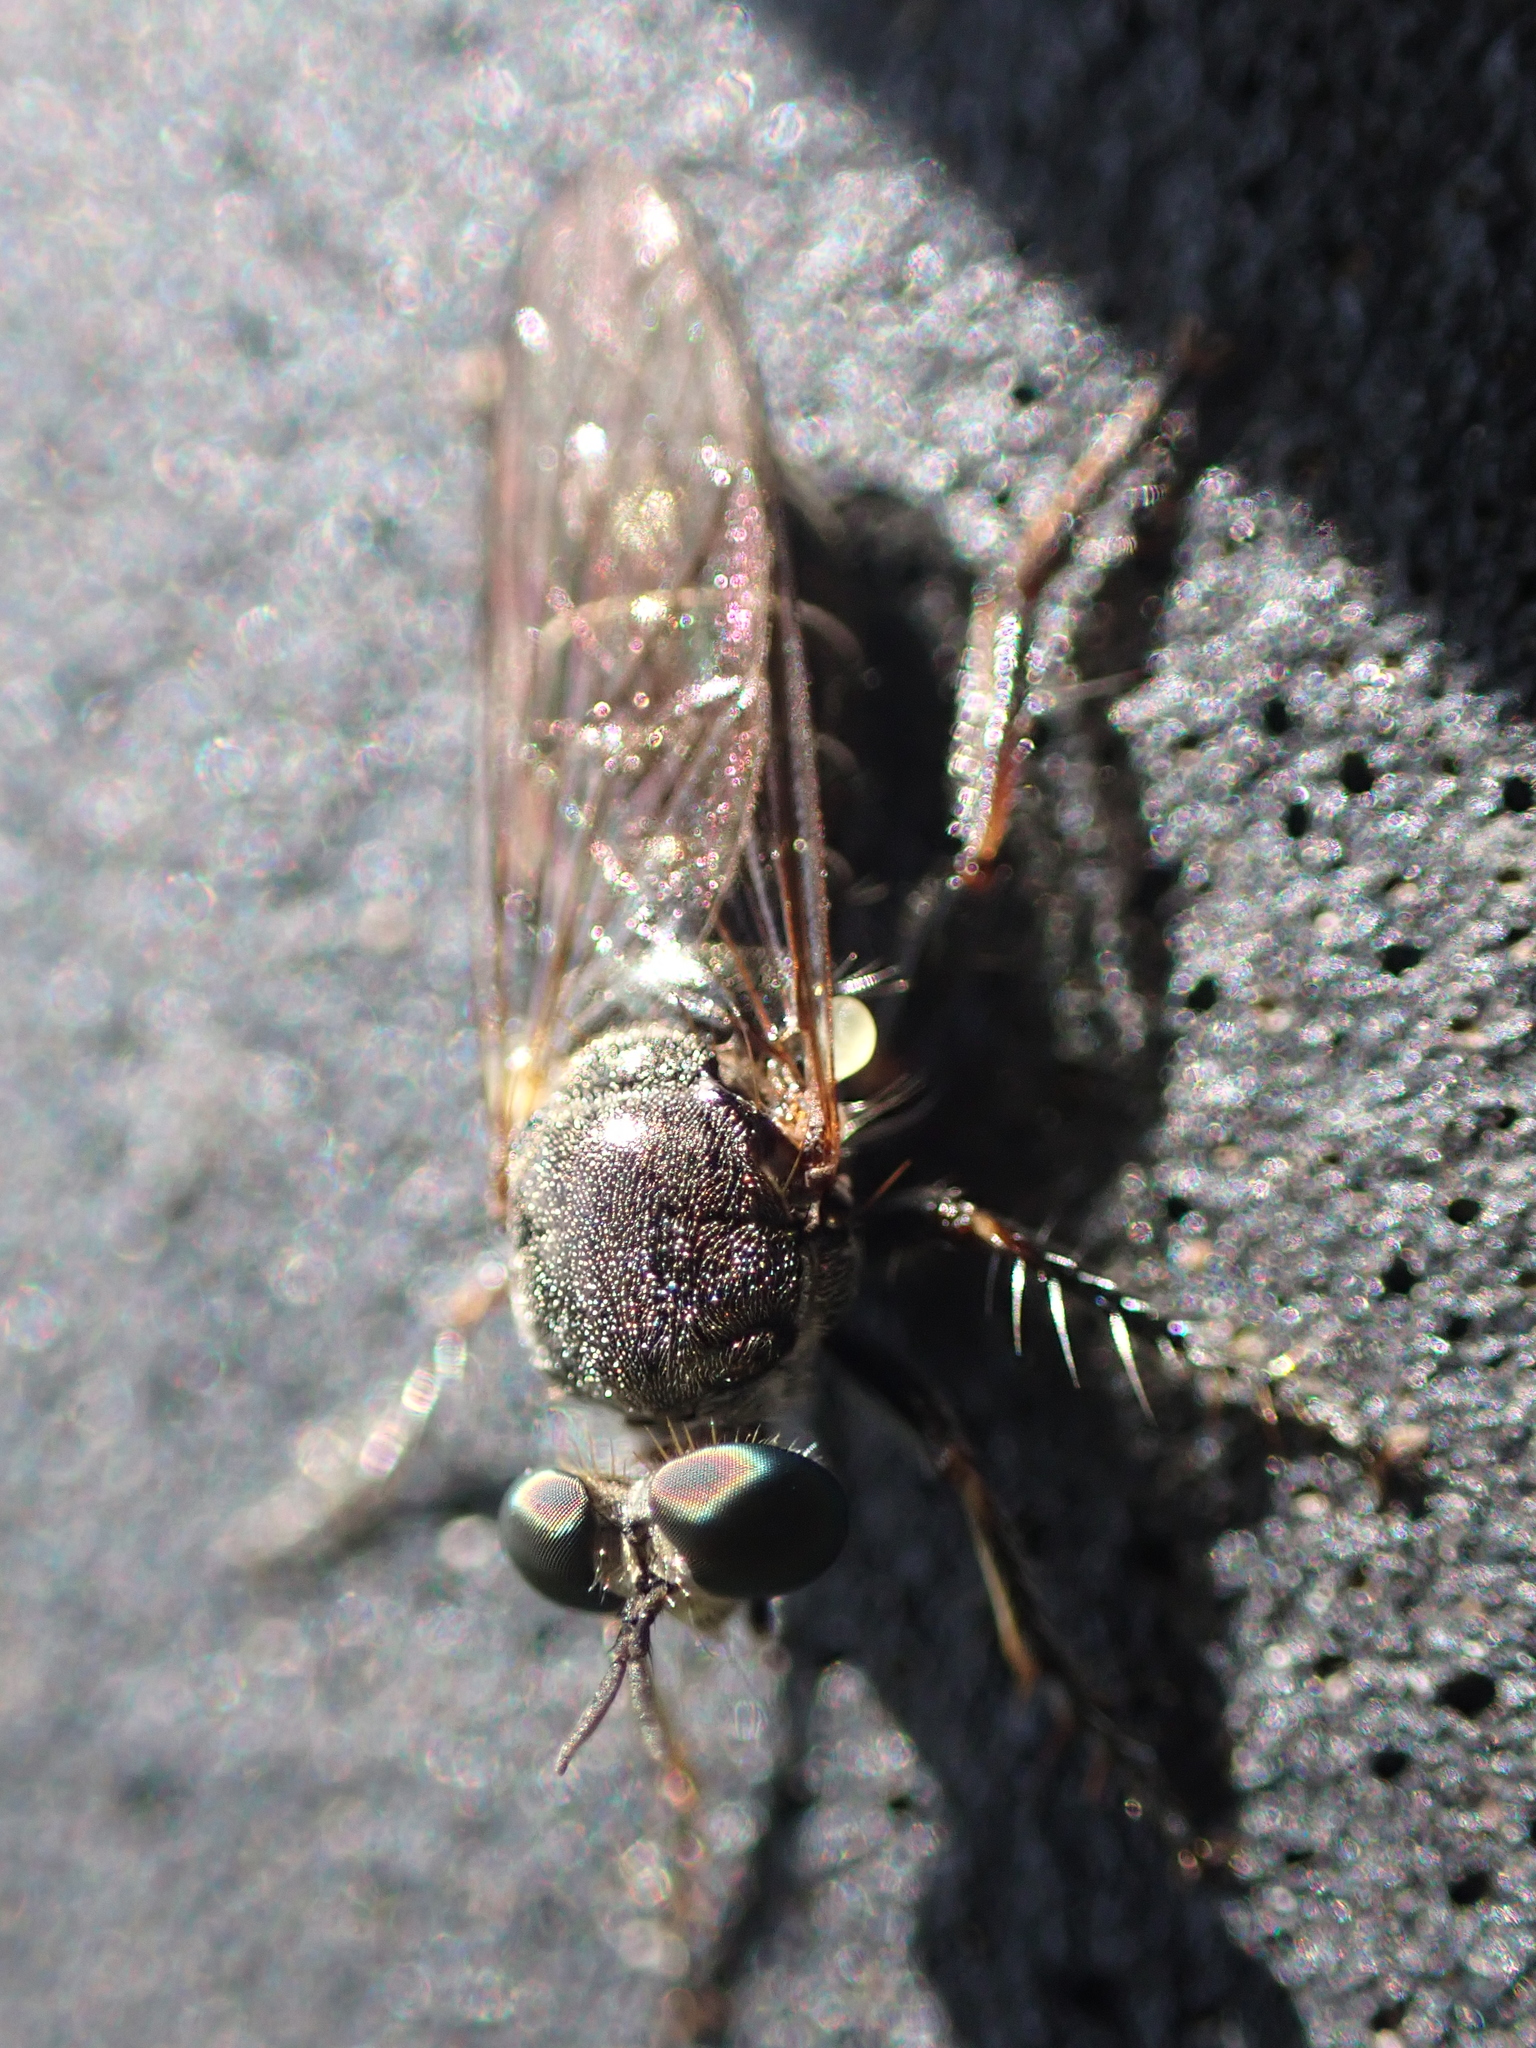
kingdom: Animalia
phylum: Arthropoda
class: Insecta
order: Diptera
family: Asilidae
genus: Atomosia
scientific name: Atomosia puella
